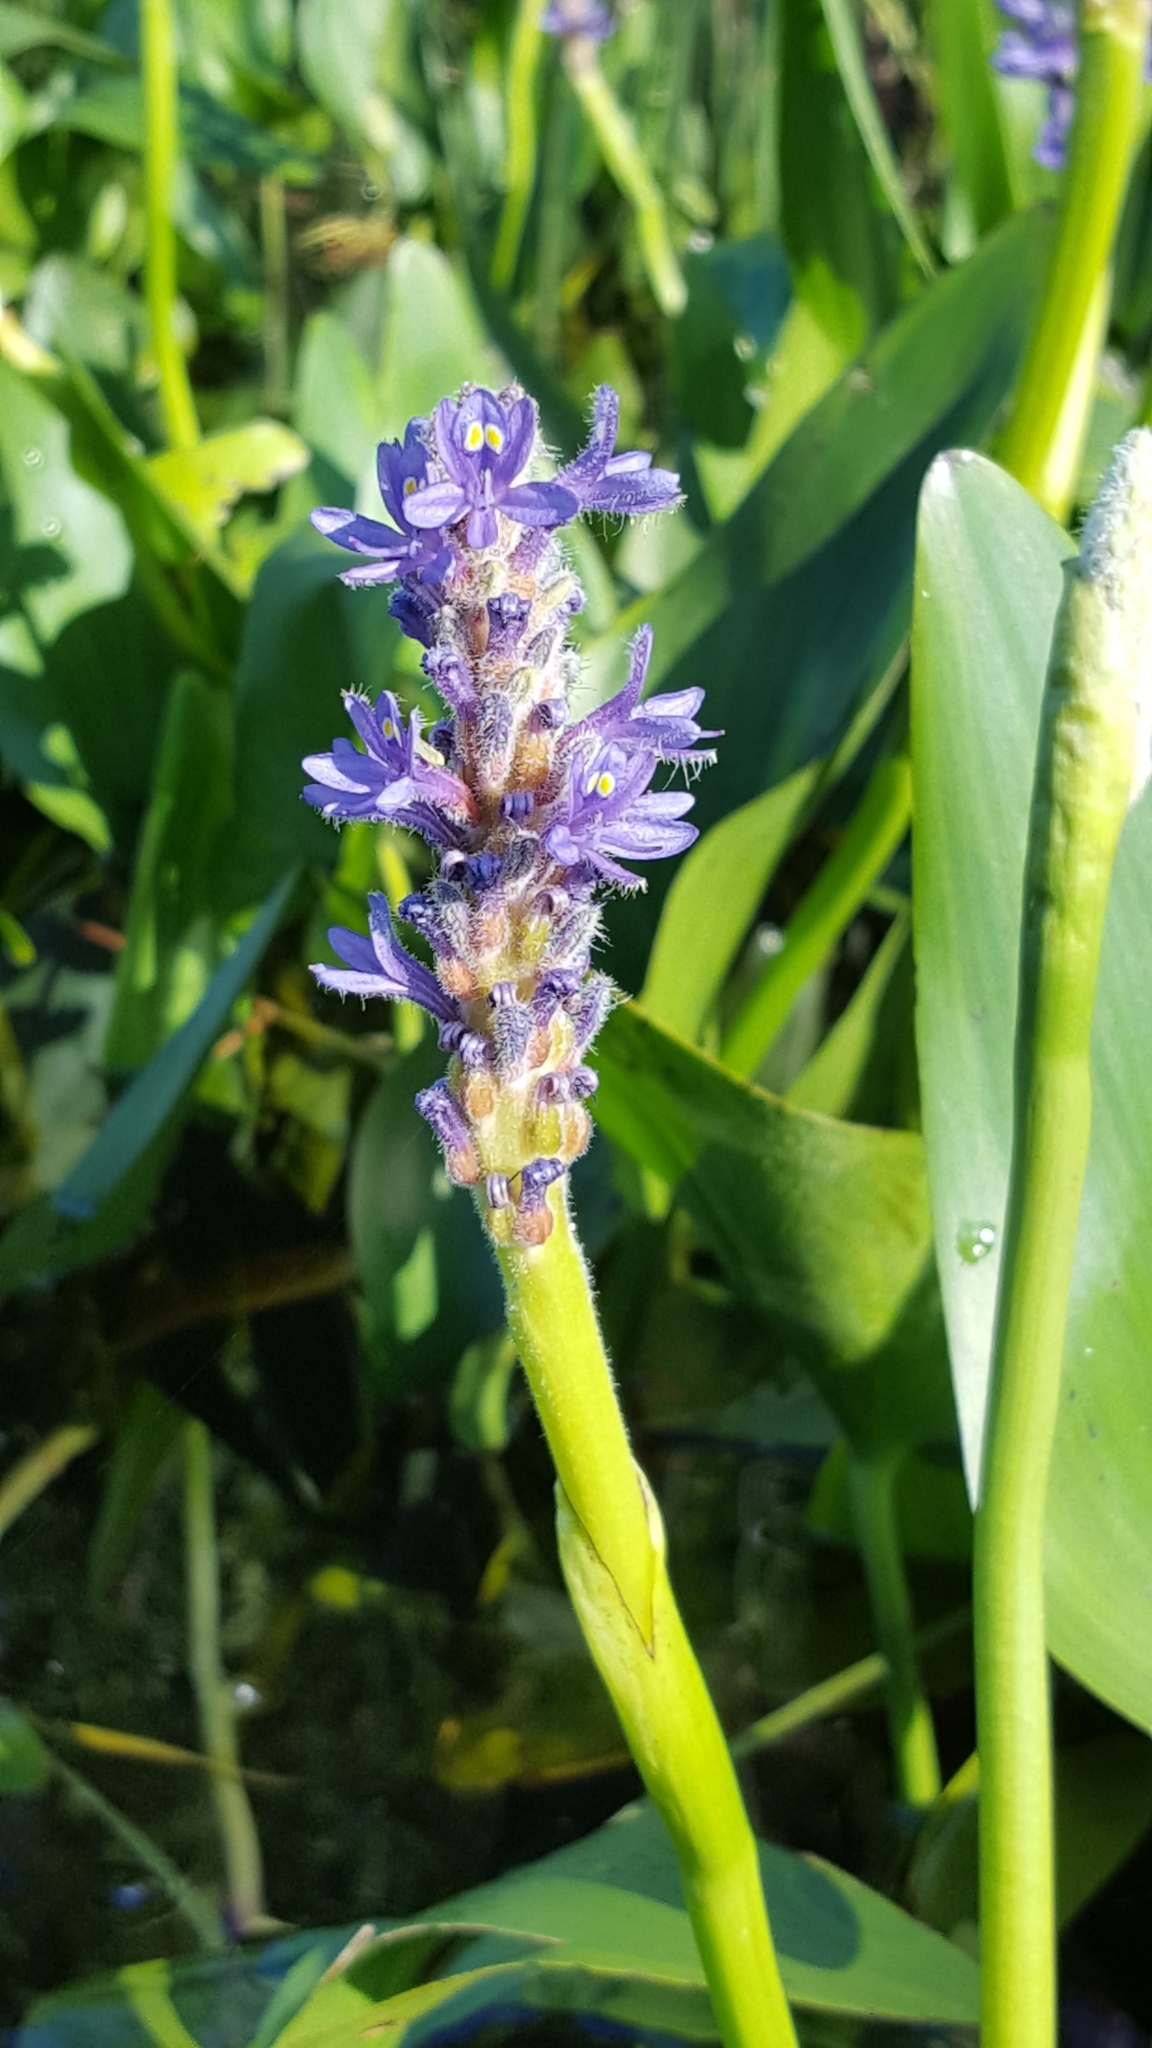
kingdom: Plantae
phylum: Tracheophyta
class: Liliopsida
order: Commelinales
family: Pontederiaceae
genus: Pontederia
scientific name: Pontederia cordata
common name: Pickerelweed
